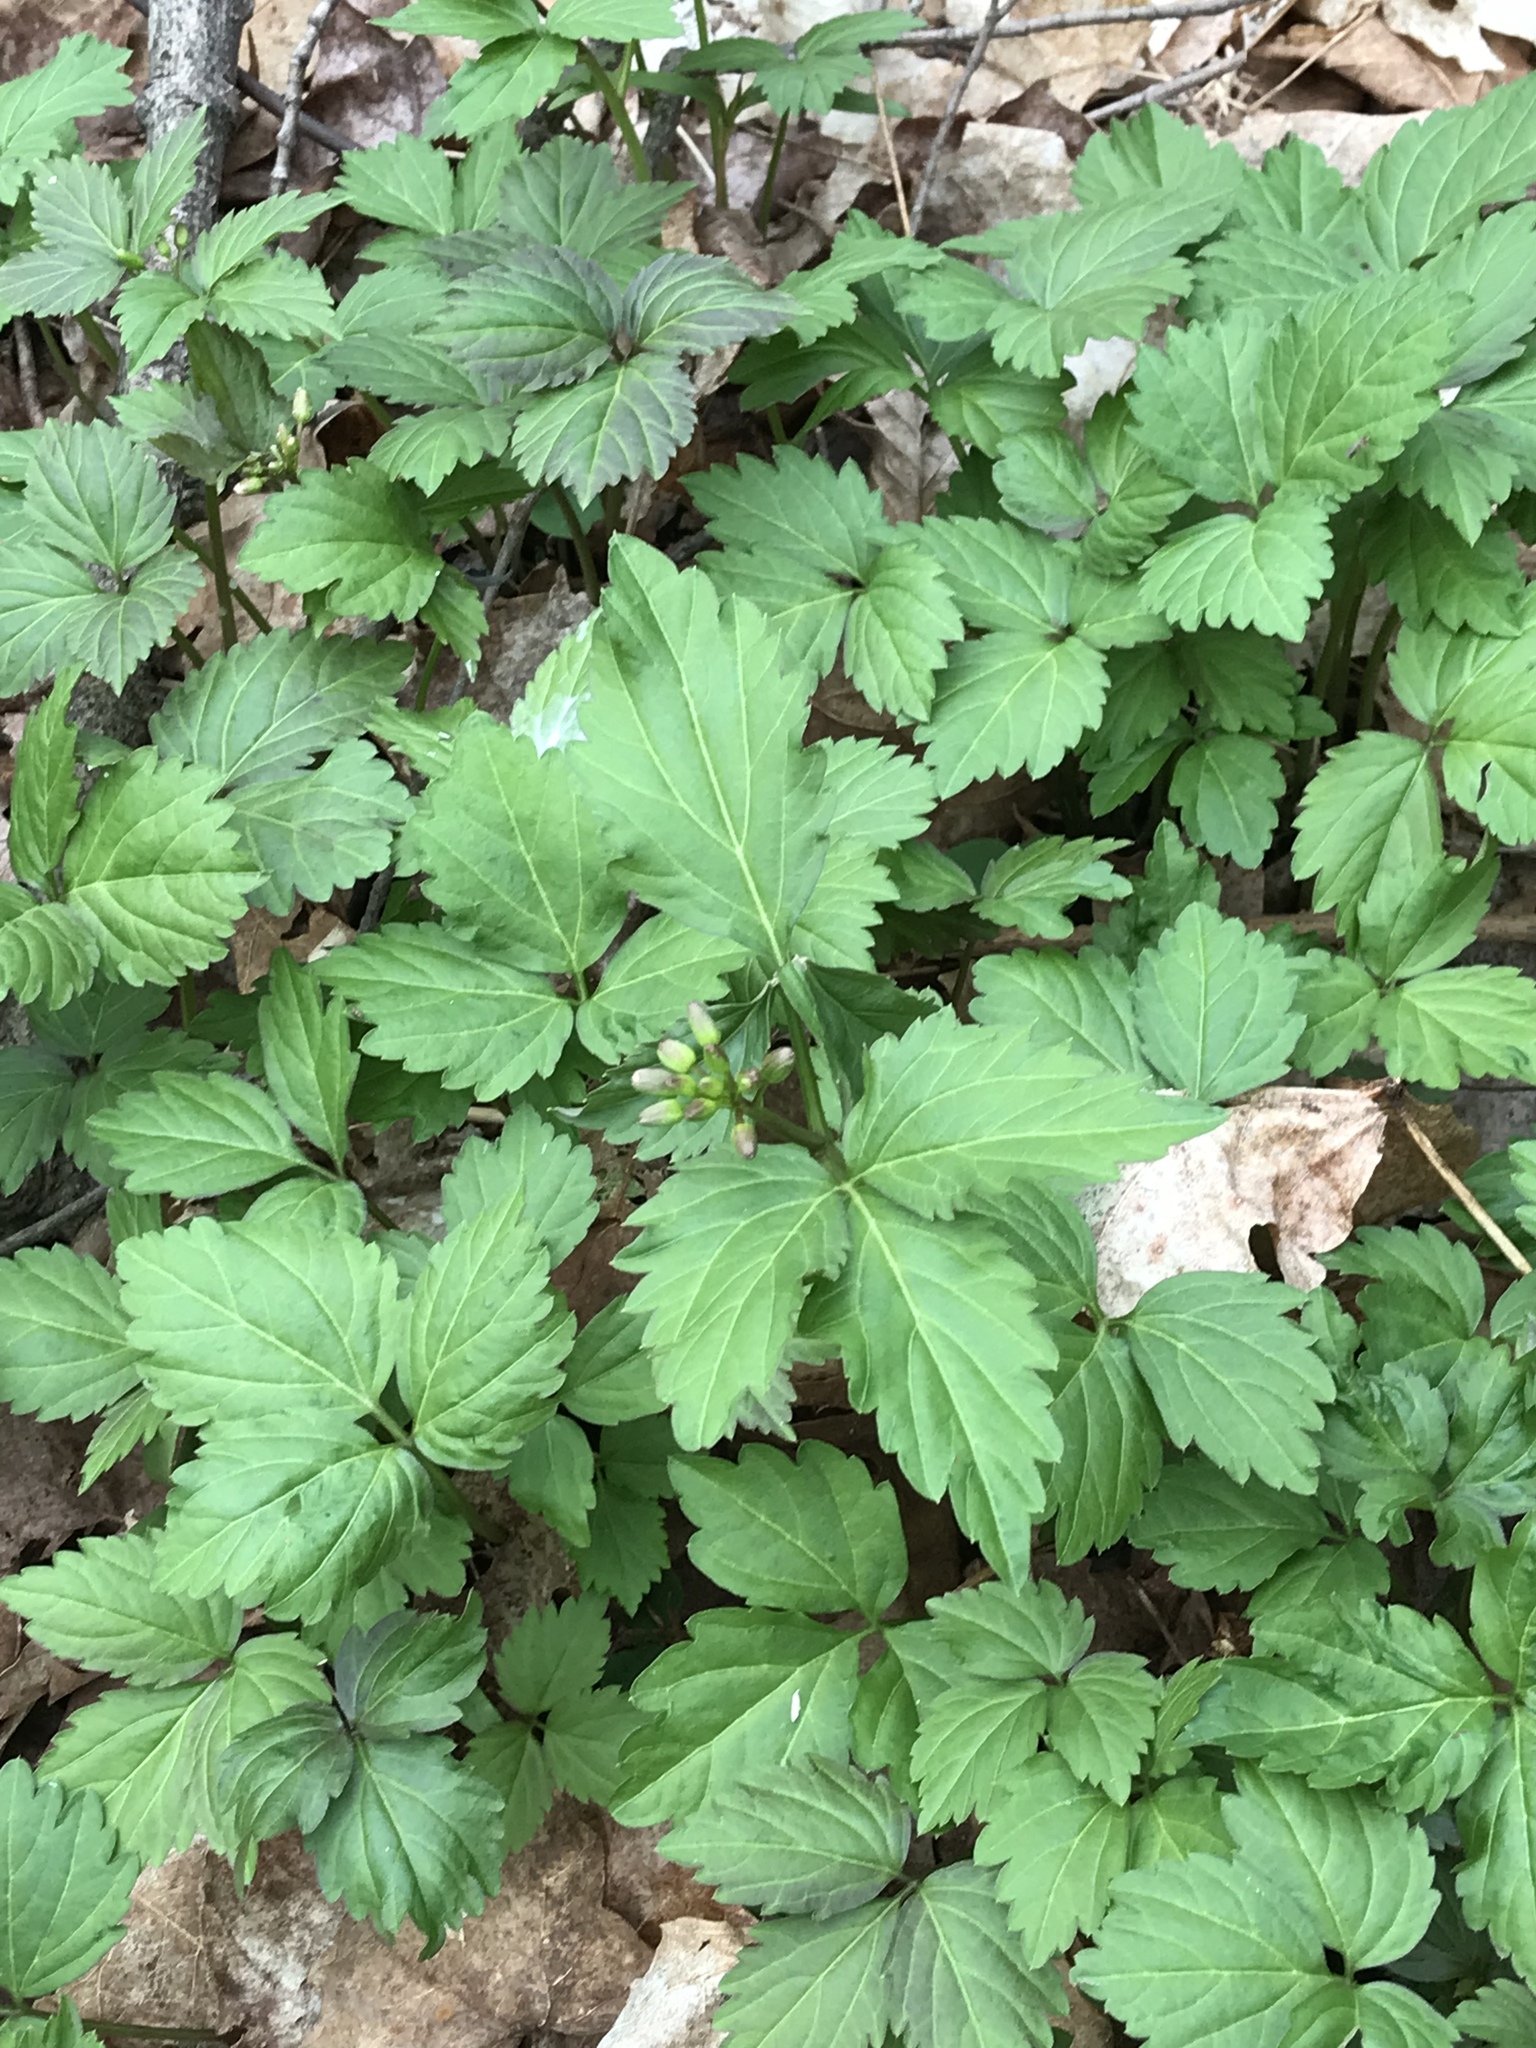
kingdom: Plantae
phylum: Tracheophyta
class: Magnoliopsida
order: Brassicales
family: Brassicaceae
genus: Cardamine
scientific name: Cardamine diphylla
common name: Broad-leaved toothwort
